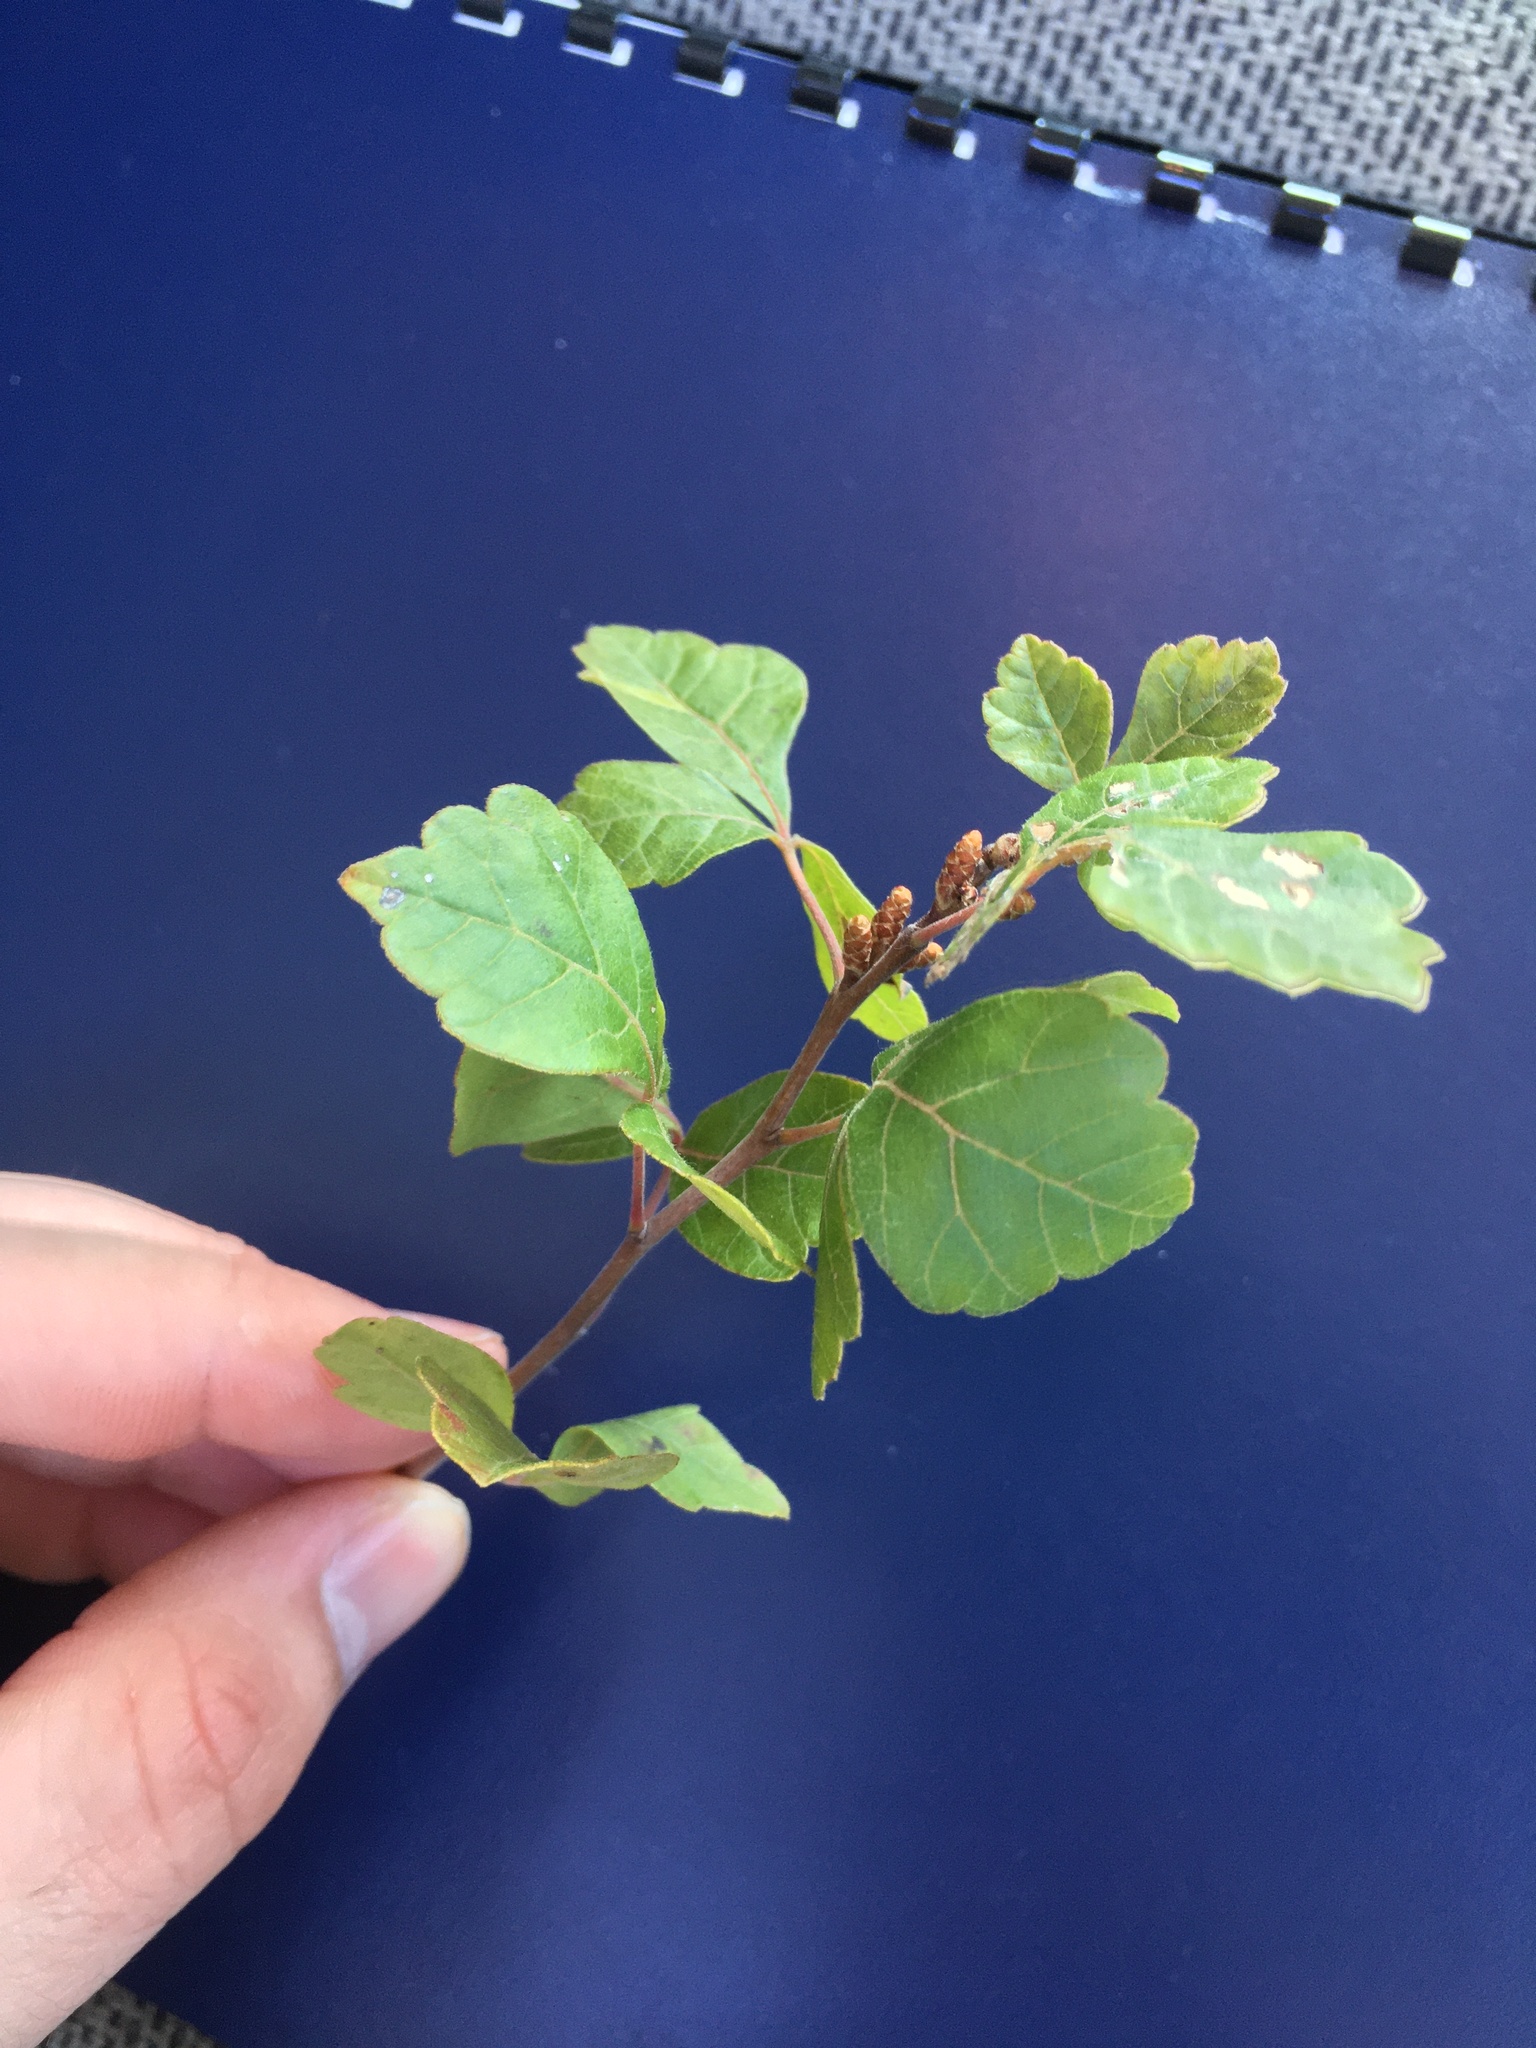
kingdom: Plantae
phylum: Tracheophyta
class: Magnoliopsida
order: Sapindales
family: Anacardiaceae
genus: Rhus
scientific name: Rhus aromatica
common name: Aromatic sumac
